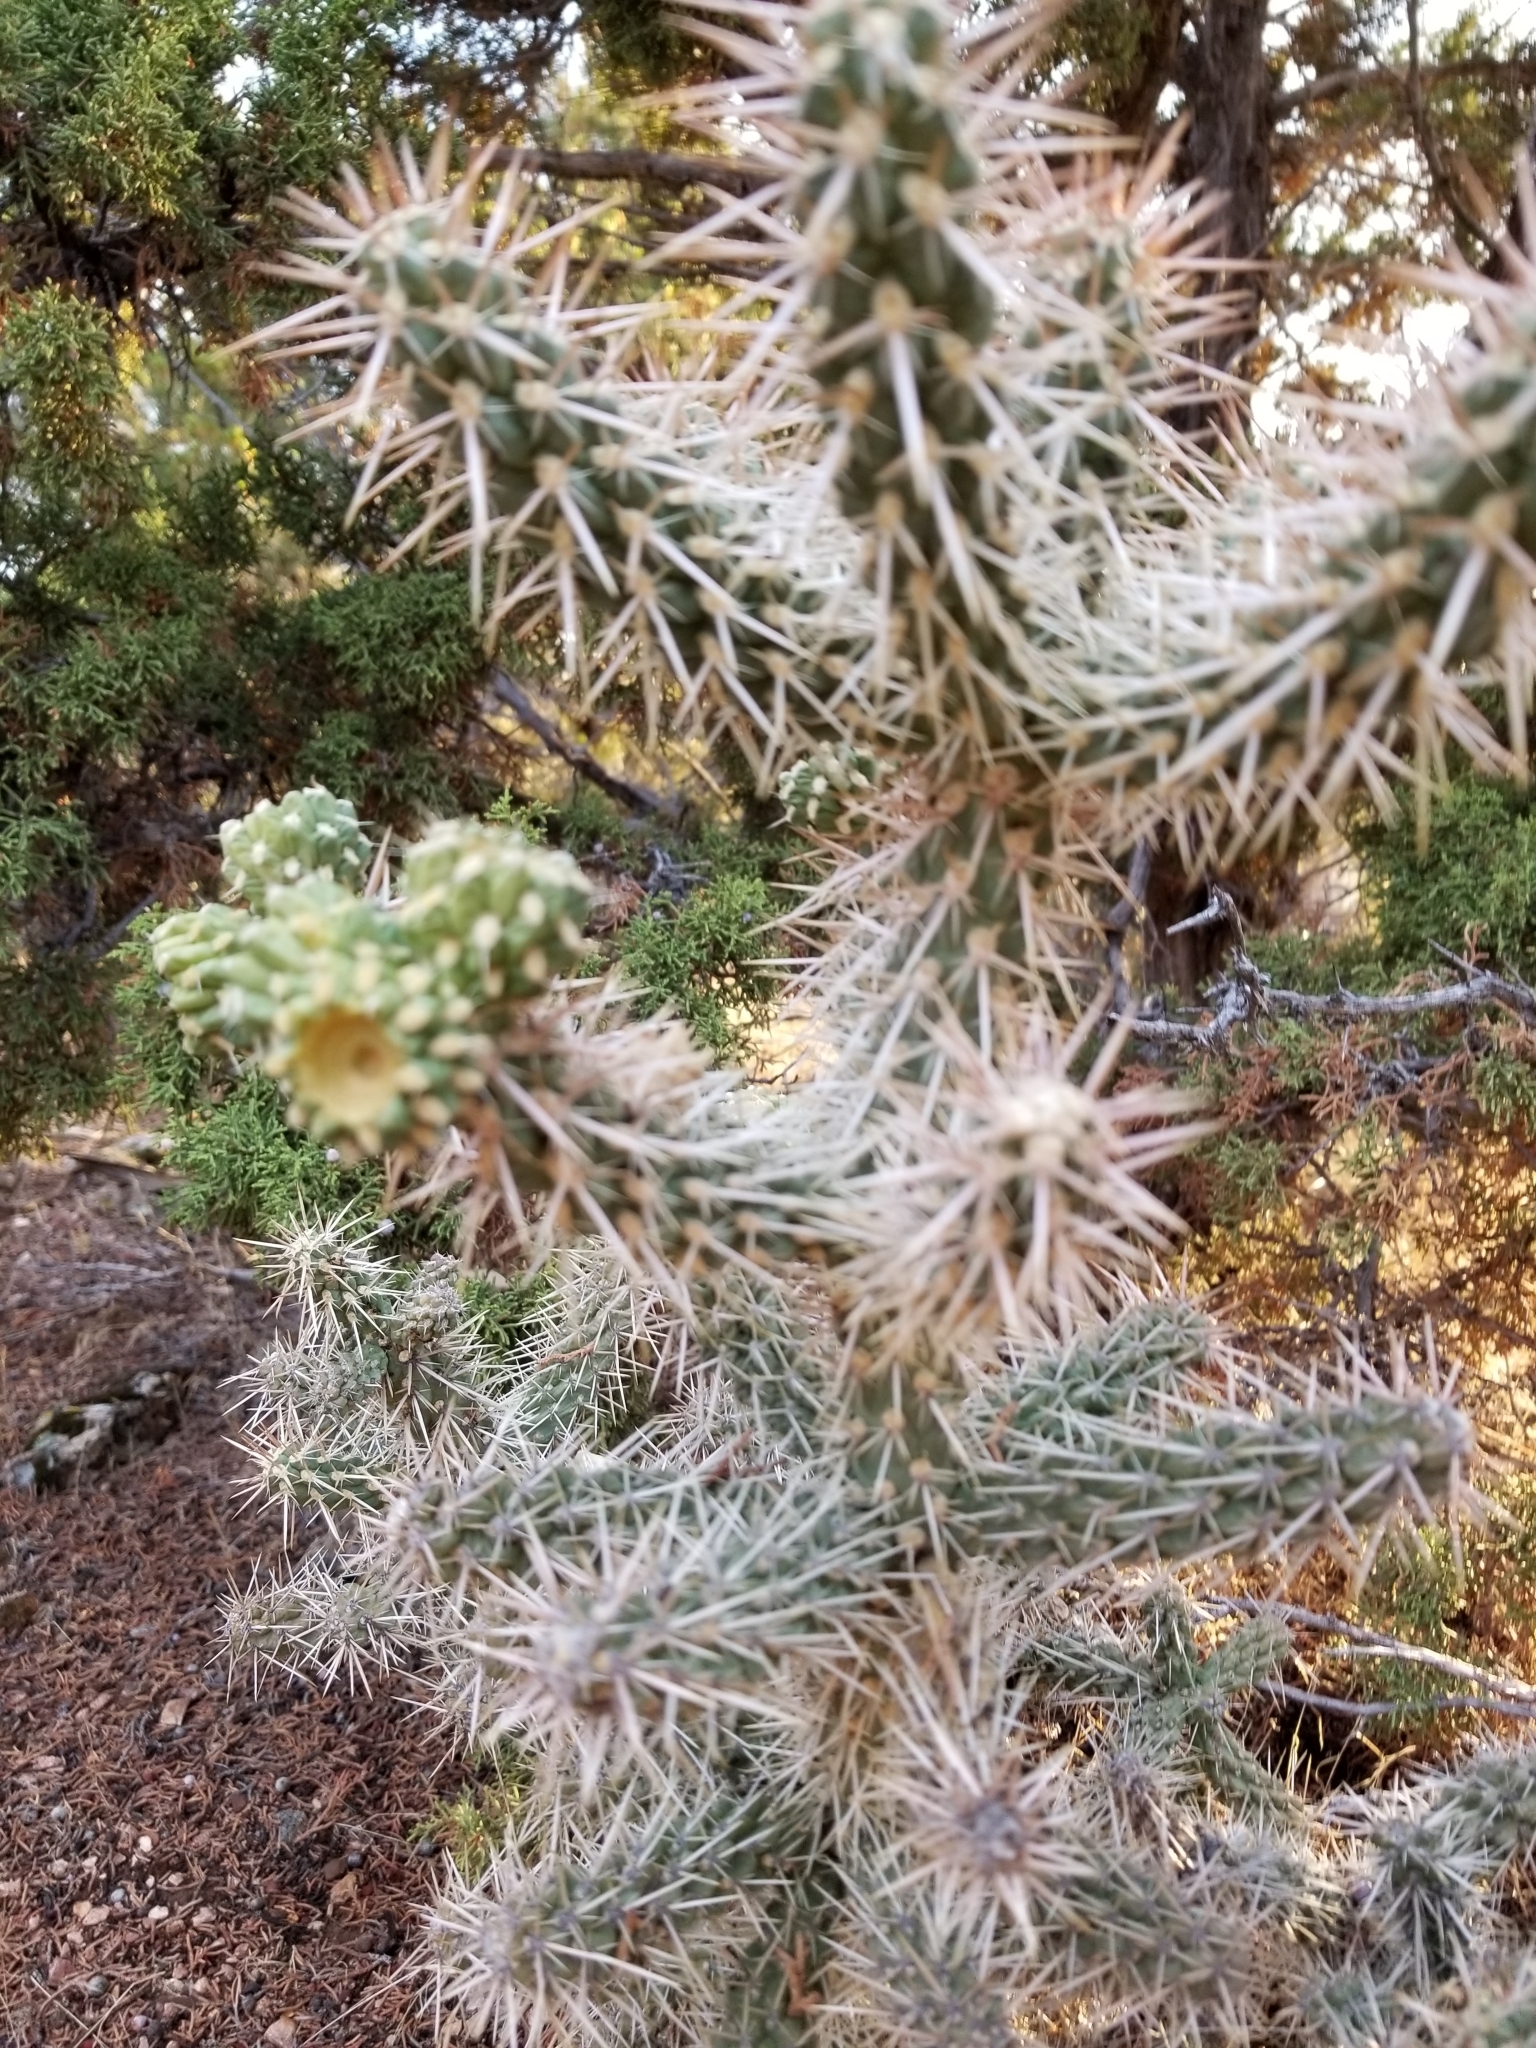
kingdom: Plantae
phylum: Tracheophyta
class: Magnoliopsida
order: Caryophyllales
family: Cactaceae
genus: Cylindropuntia
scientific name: Cylindropuntia whipplei
